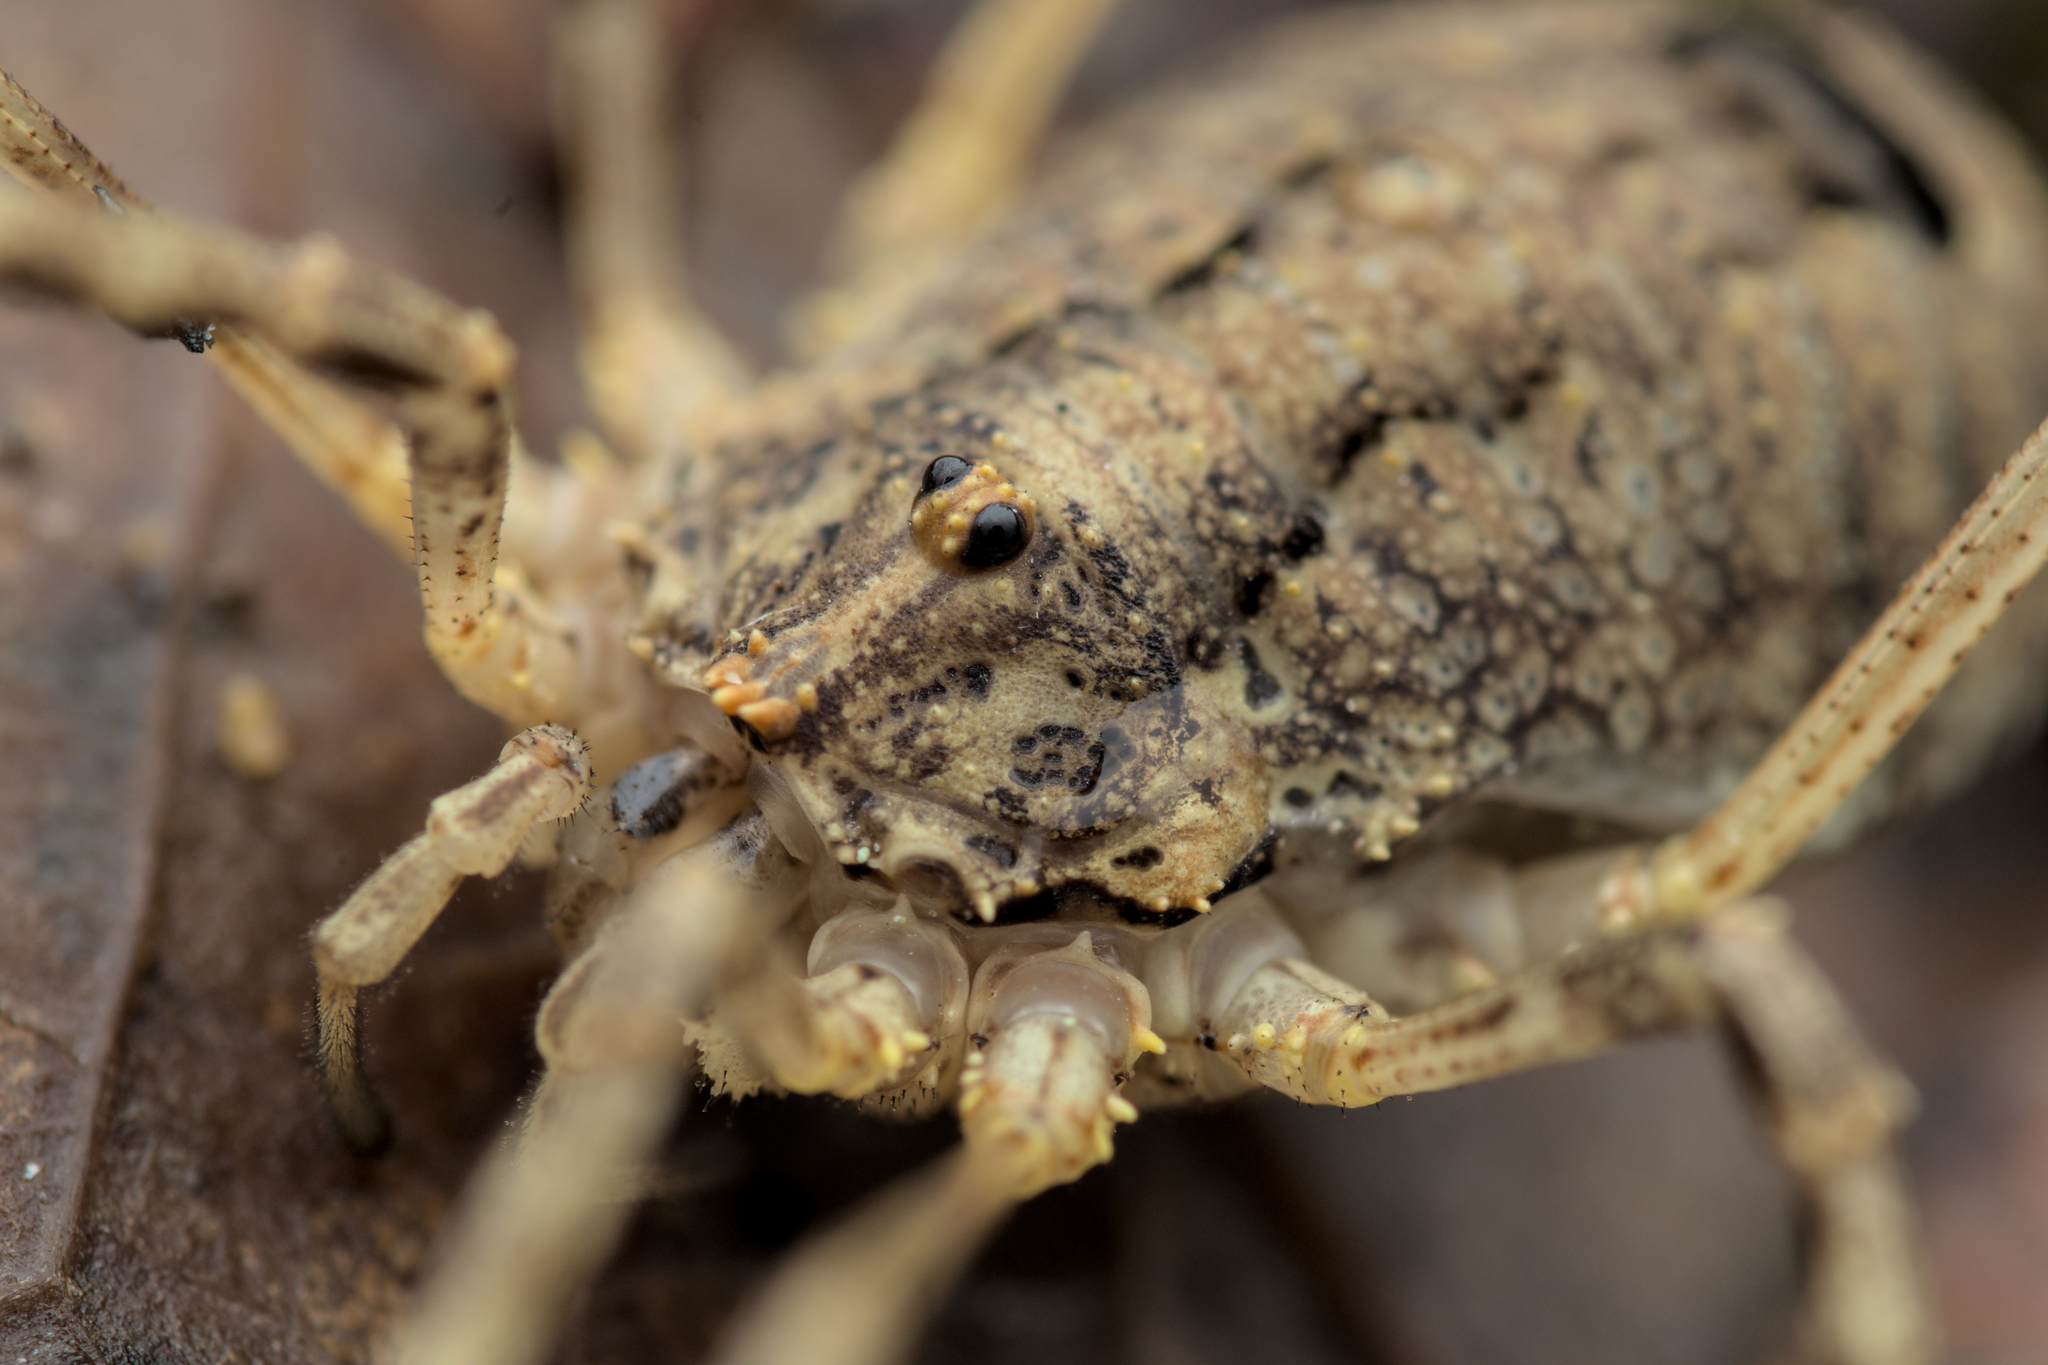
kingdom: Animalia
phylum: Arthropoda
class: Arachnida
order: Opiliones
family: Phalangiidae
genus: Odiellus
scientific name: Odiellus spinosus
